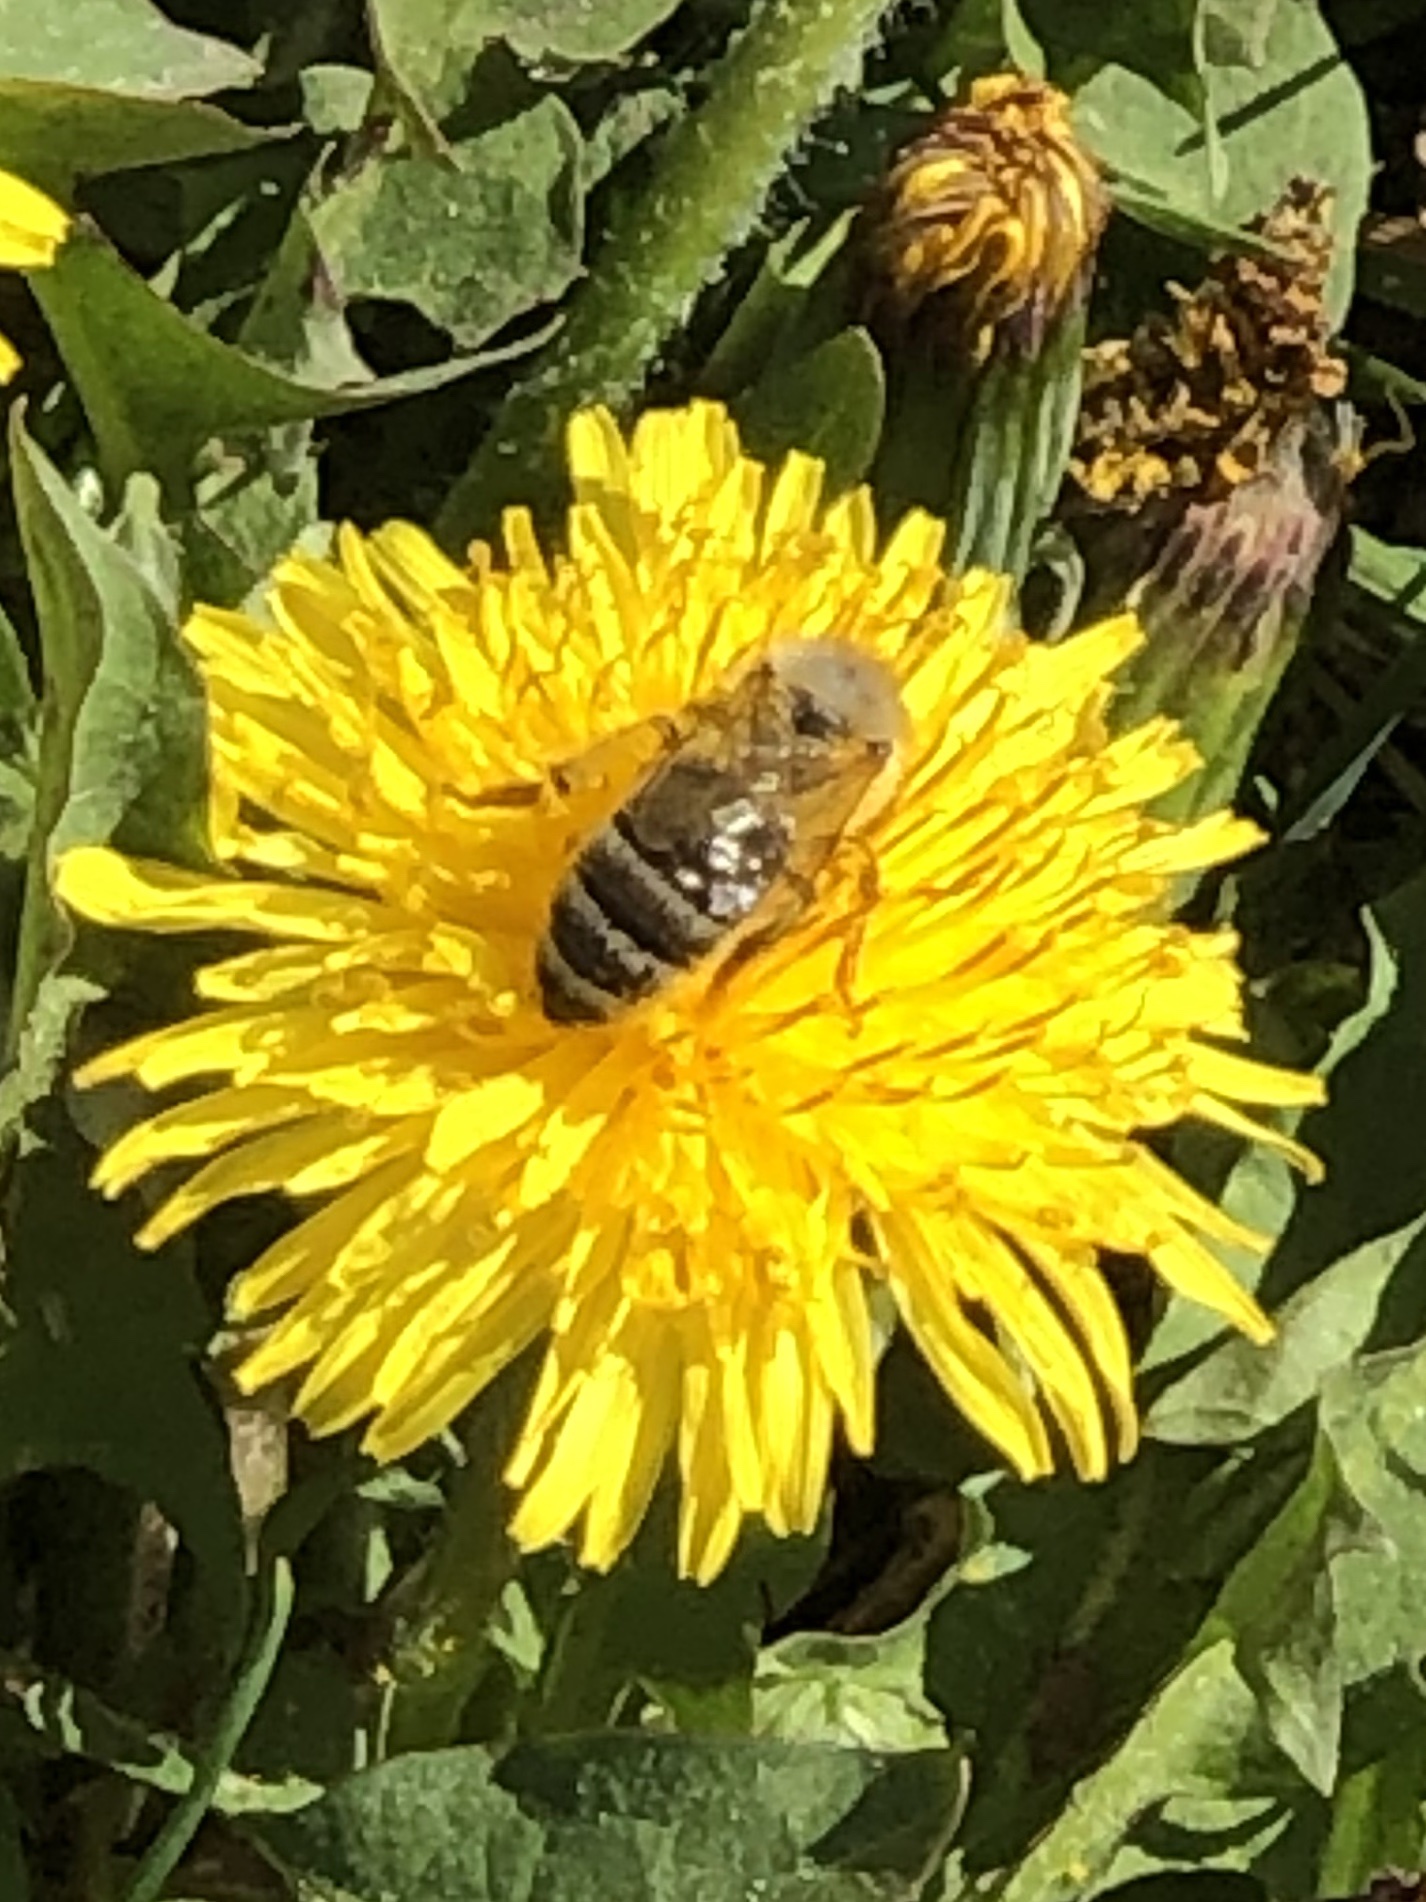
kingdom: Animalia
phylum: Arthropoda
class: Insecta
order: Hymenoptera
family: Apidae
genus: Apis
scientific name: Apis mellifera
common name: Honey bee
